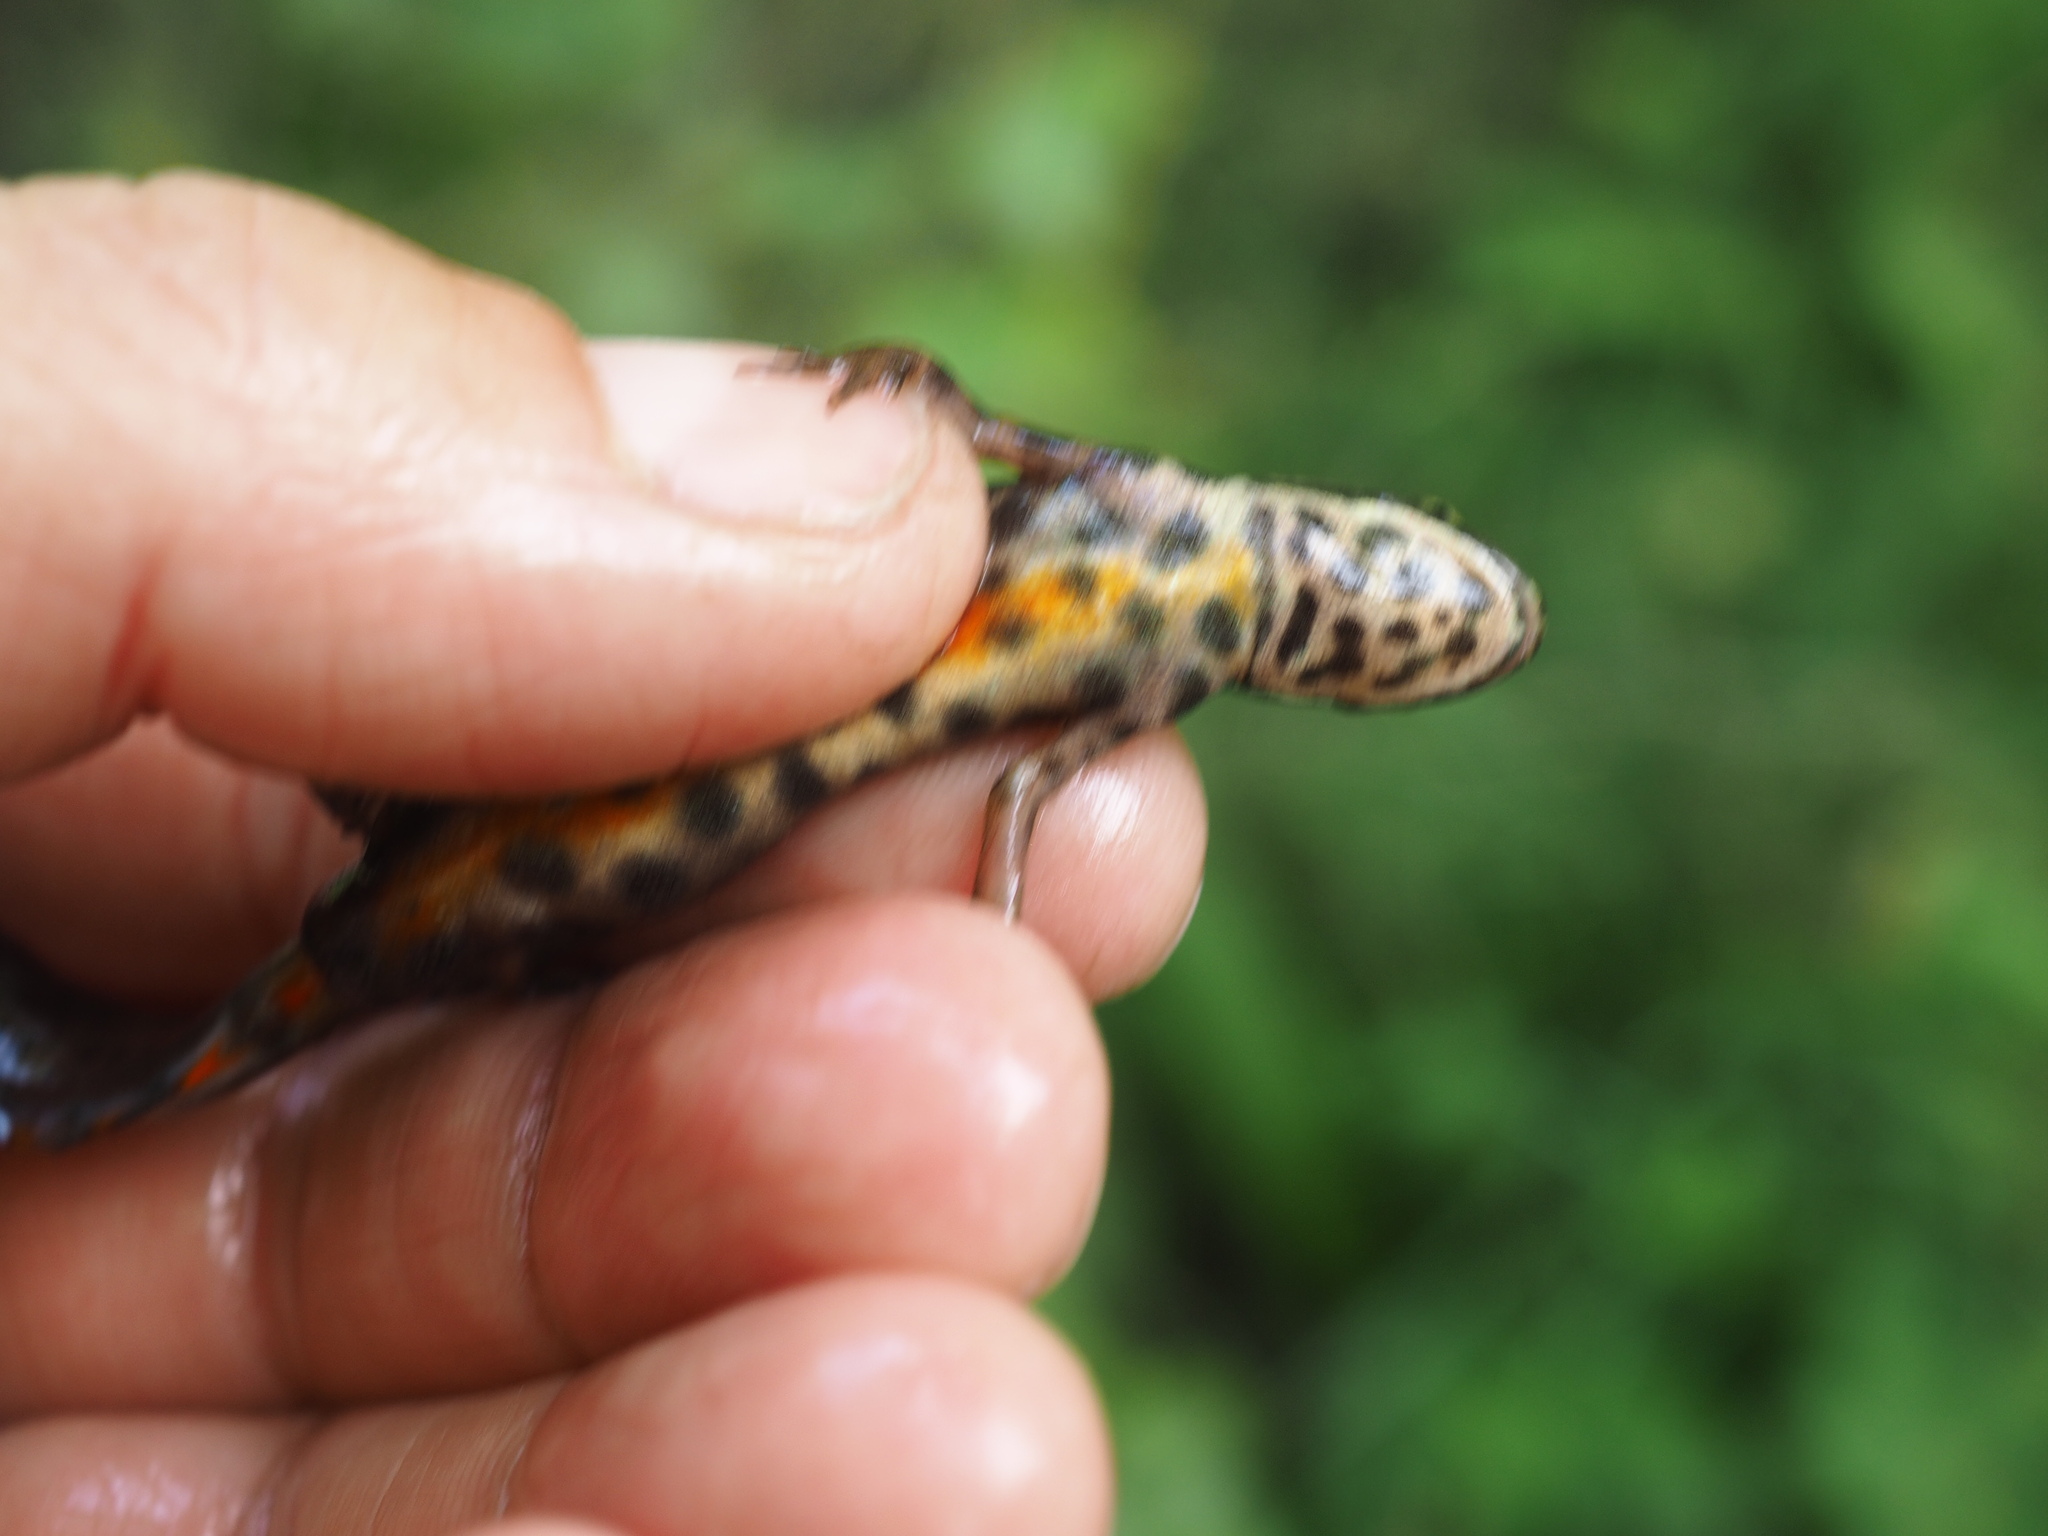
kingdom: Animalia
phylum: Chordata
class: Amphibia
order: Caudata
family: Salamandridae
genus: Lissotriton
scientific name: Lissotriton vulgaris
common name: Smooth newt
